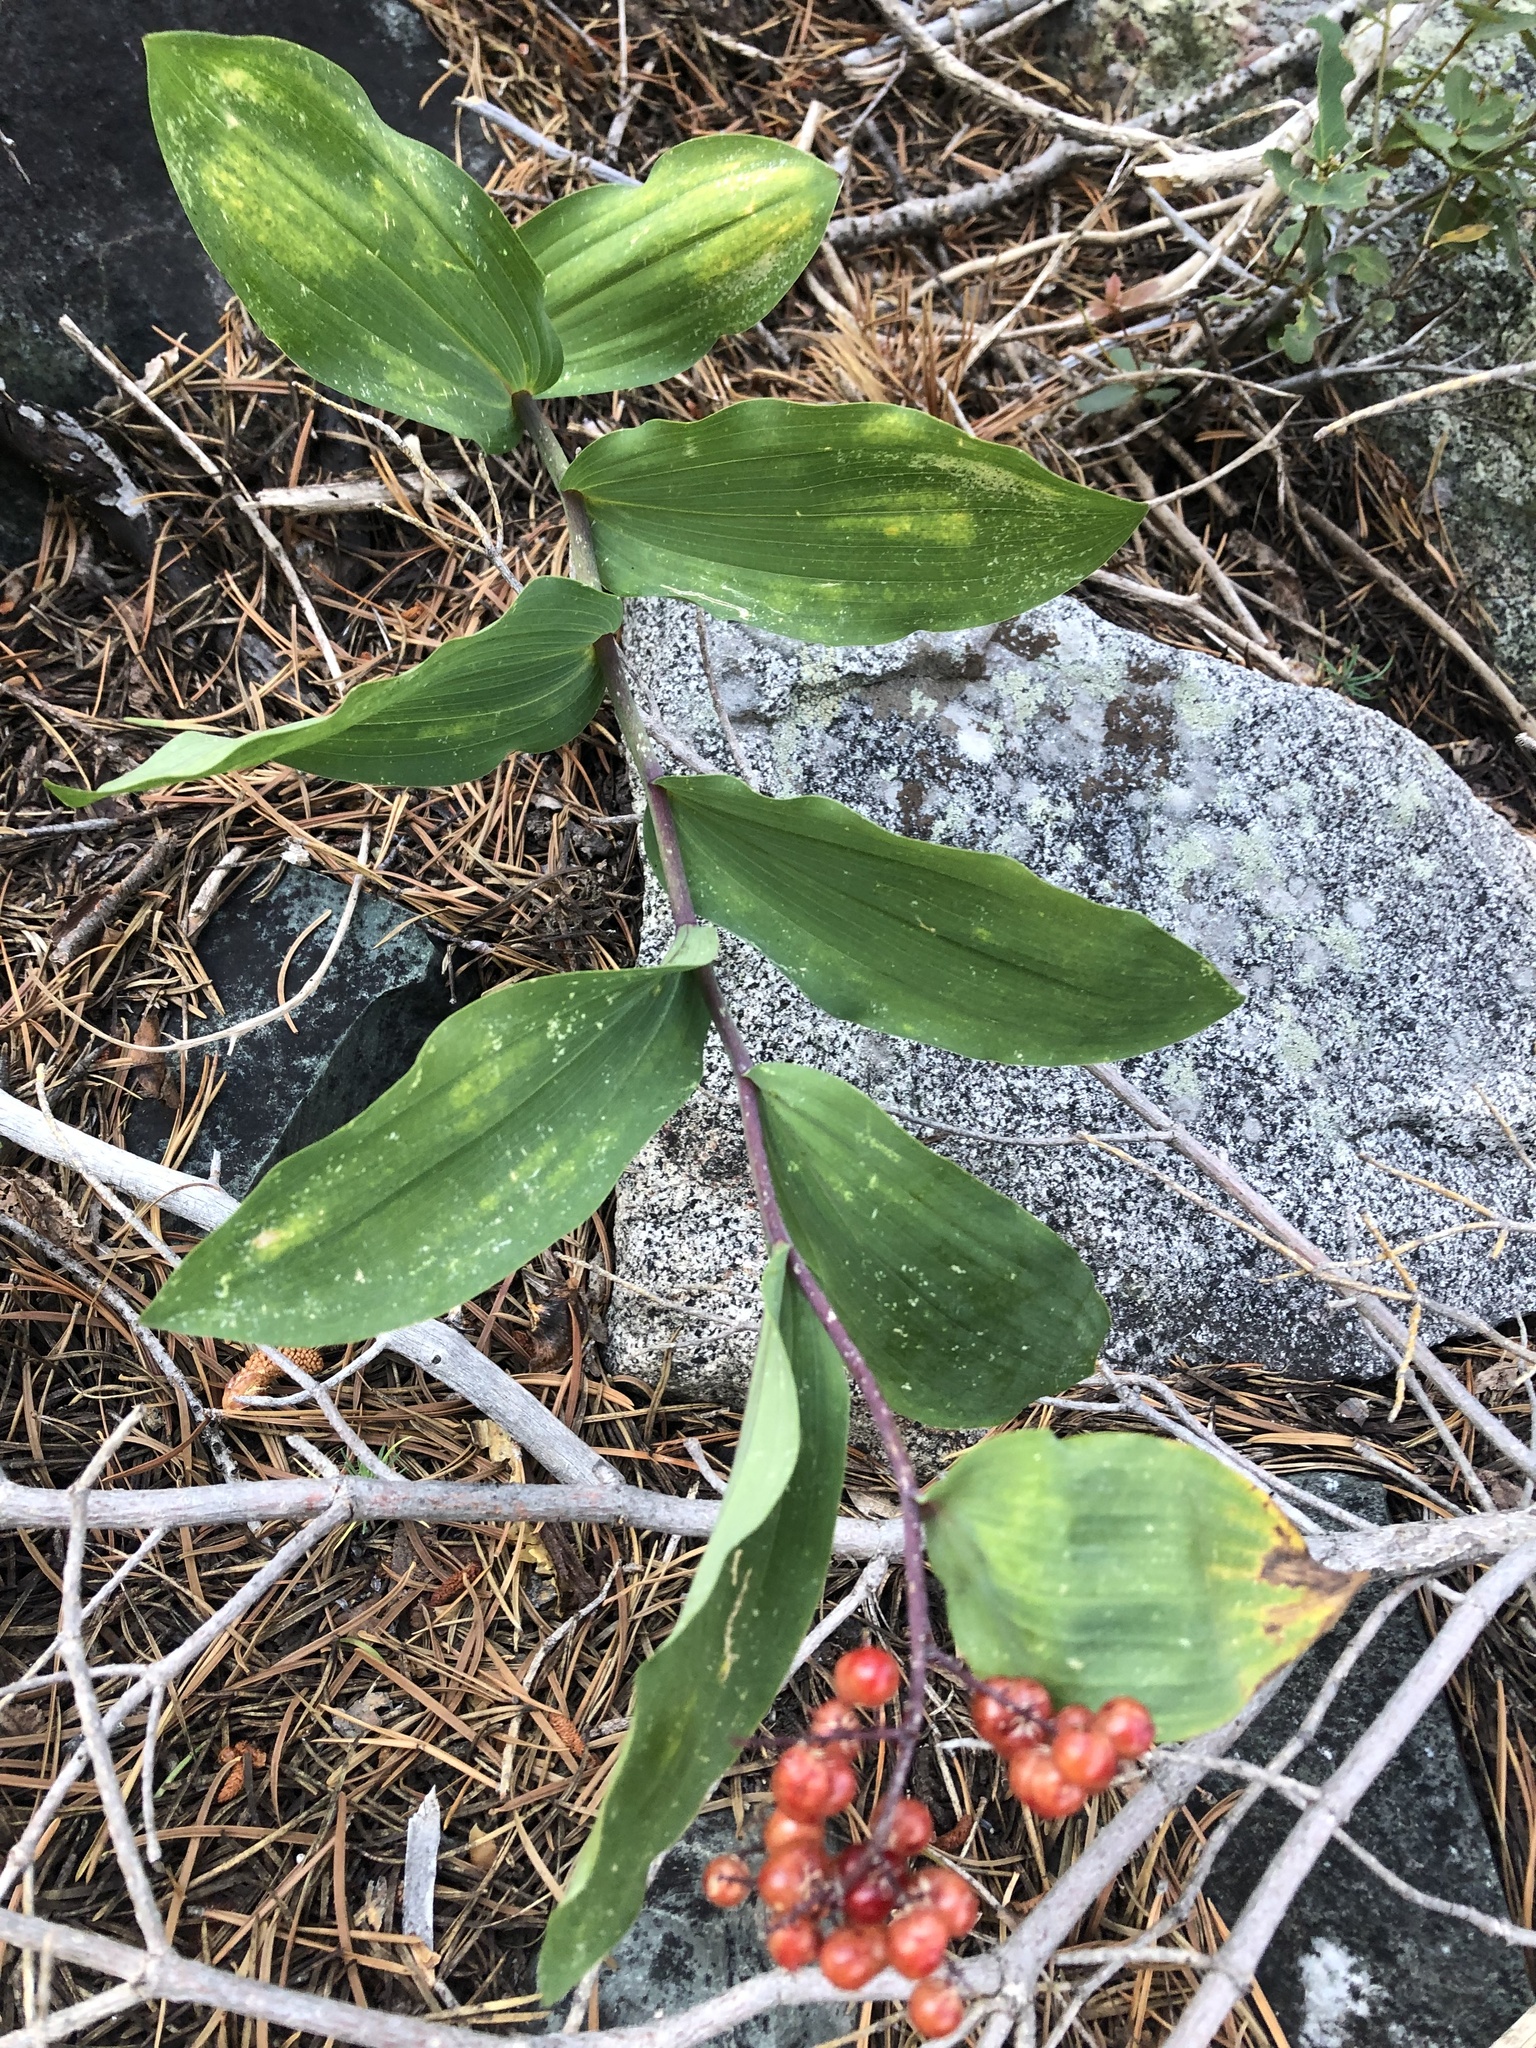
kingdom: Plantae
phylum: Tracheophyta
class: Liliopsida
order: Asparagales
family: Asparagaceae
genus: Maianthemum
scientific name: Maianthemum racemosum
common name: False spikenard
